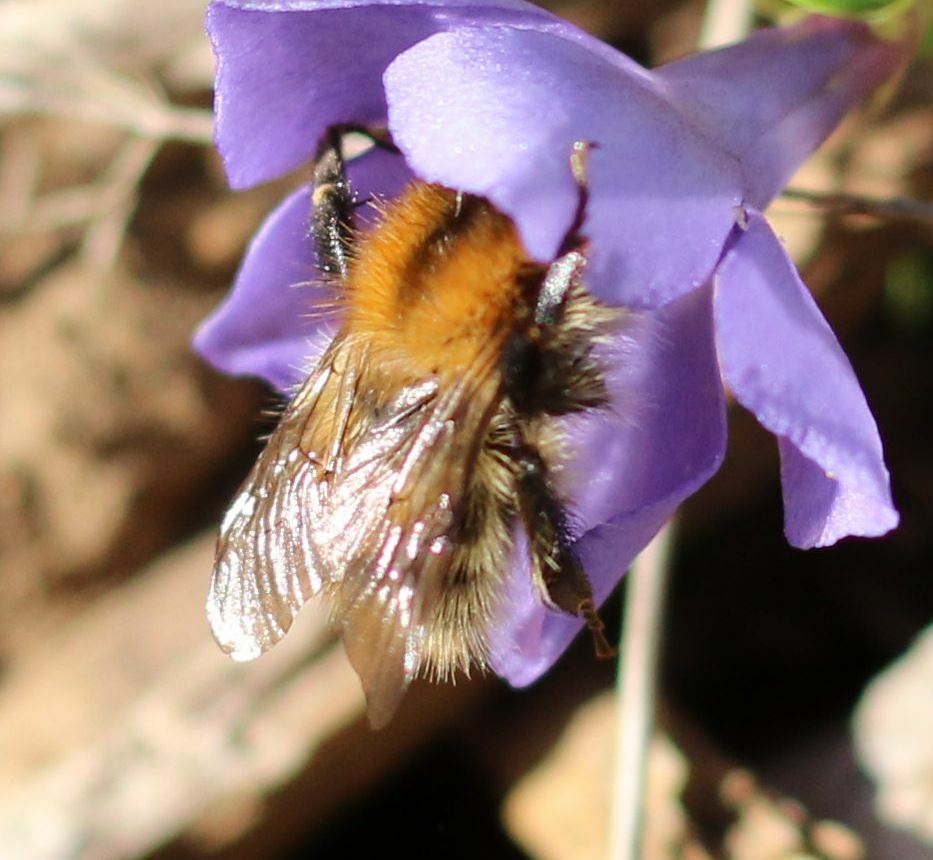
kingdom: Animalia
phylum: Arthropoda
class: Insecta
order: Hymenoptera
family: Apidae
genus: Bombus
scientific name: Bombus pascuorum
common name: Common carder bee
